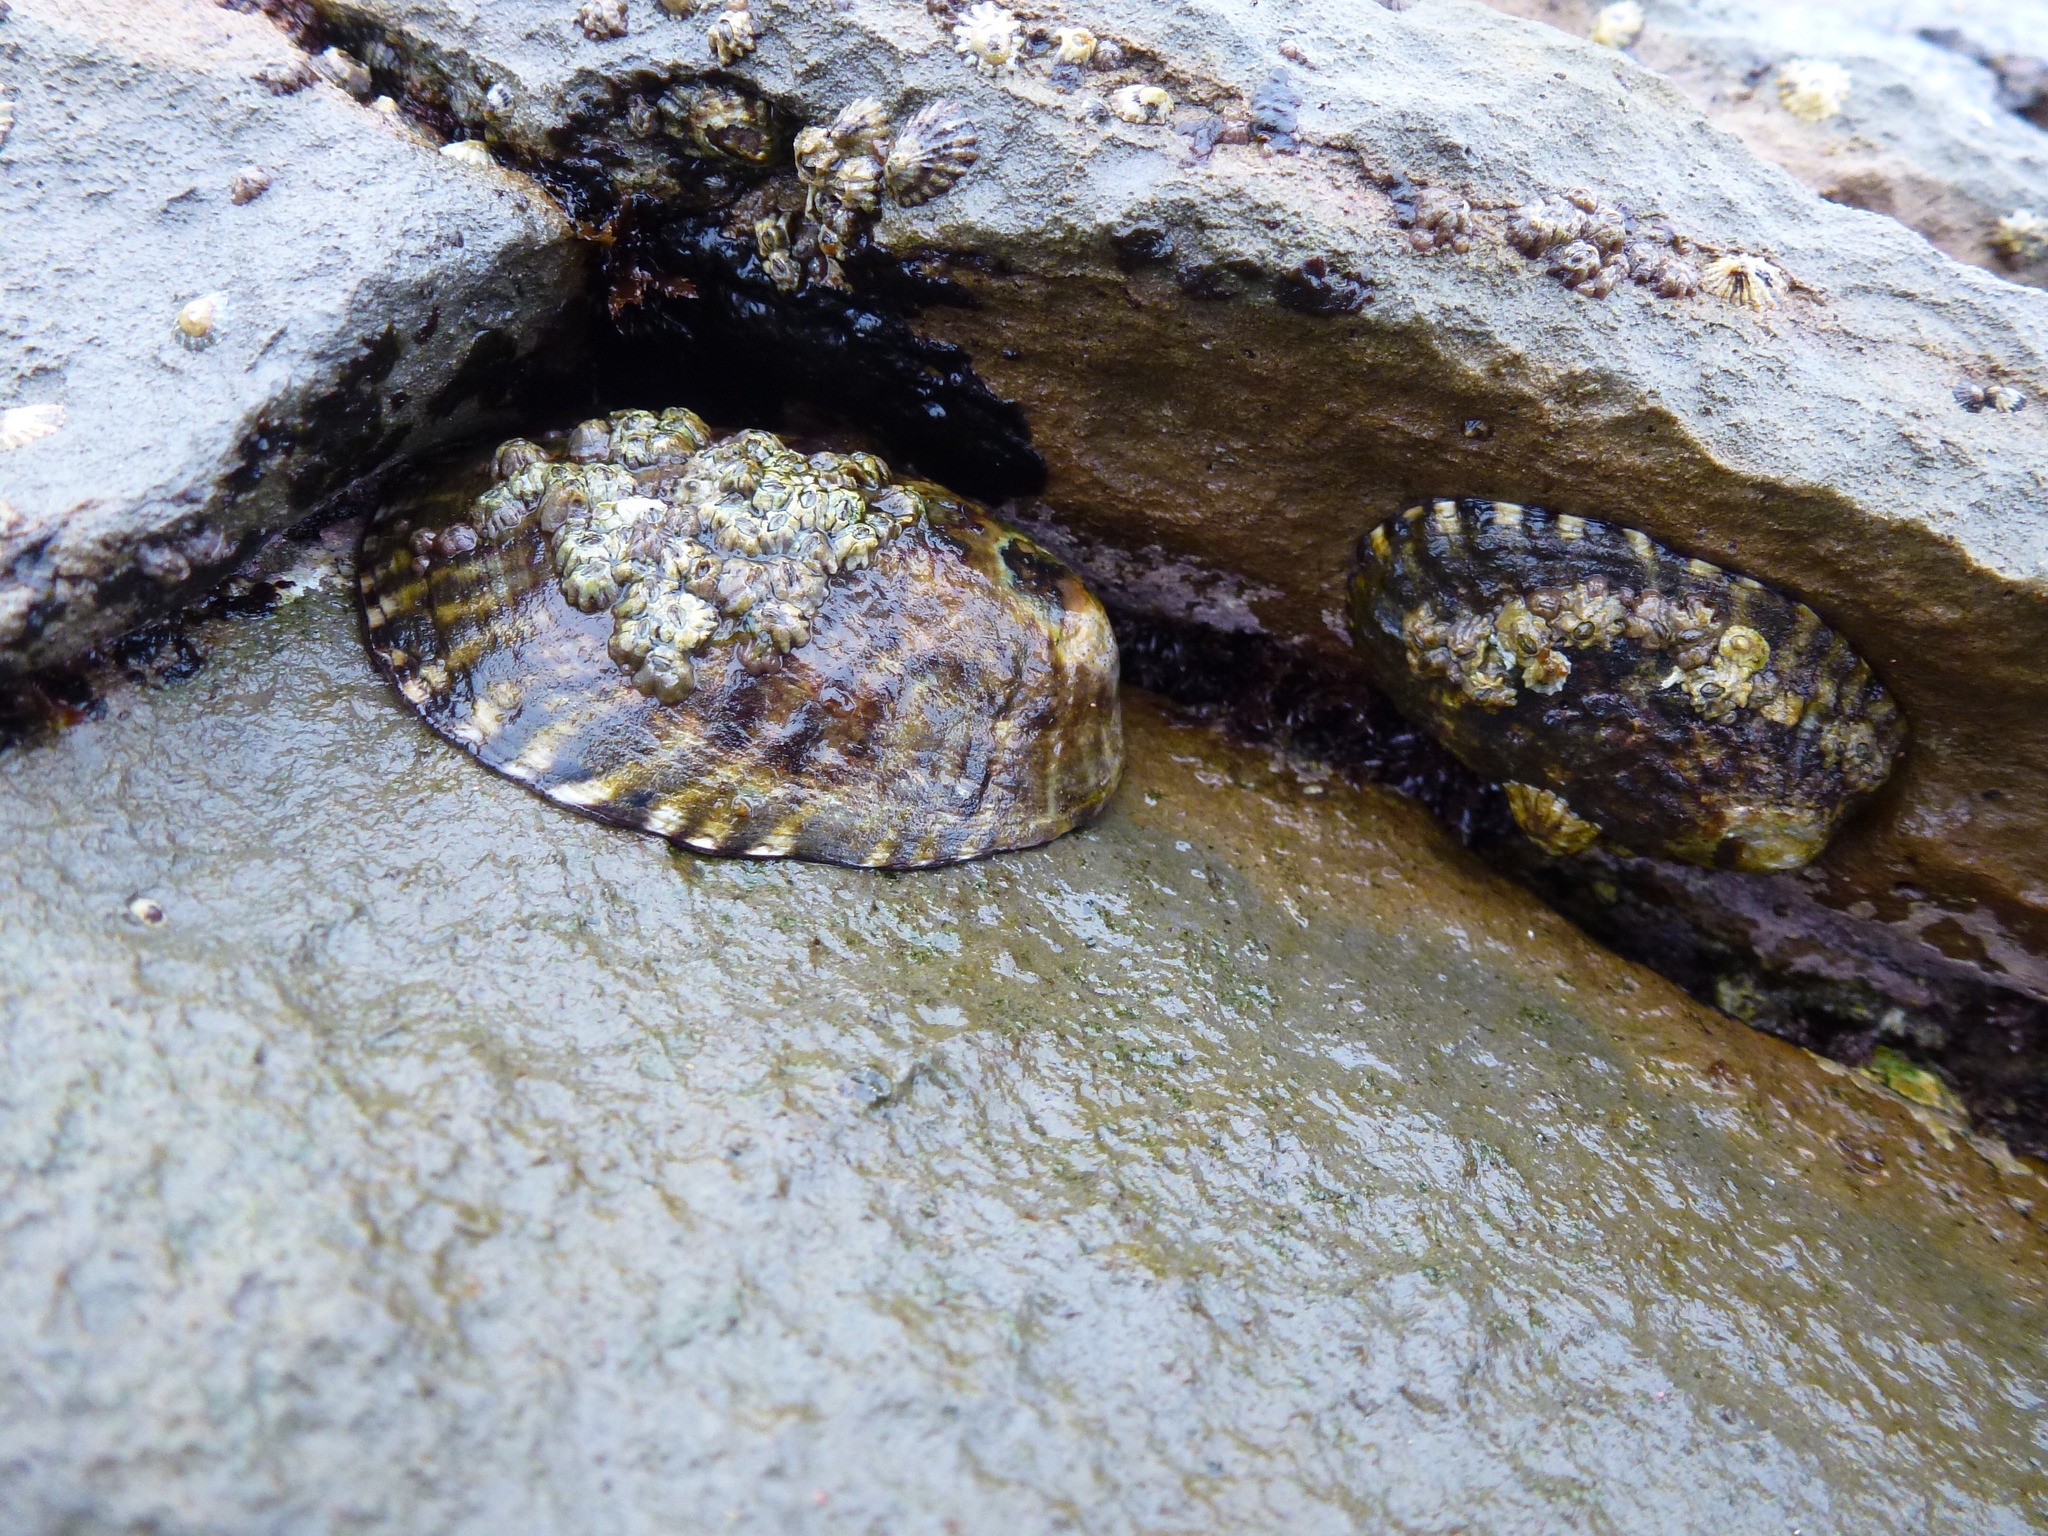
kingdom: Animalia
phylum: Mollusca
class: Gastropoda
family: Lottiidae
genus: Lottia
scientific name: Lottia gigantea
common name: Owl limpet
